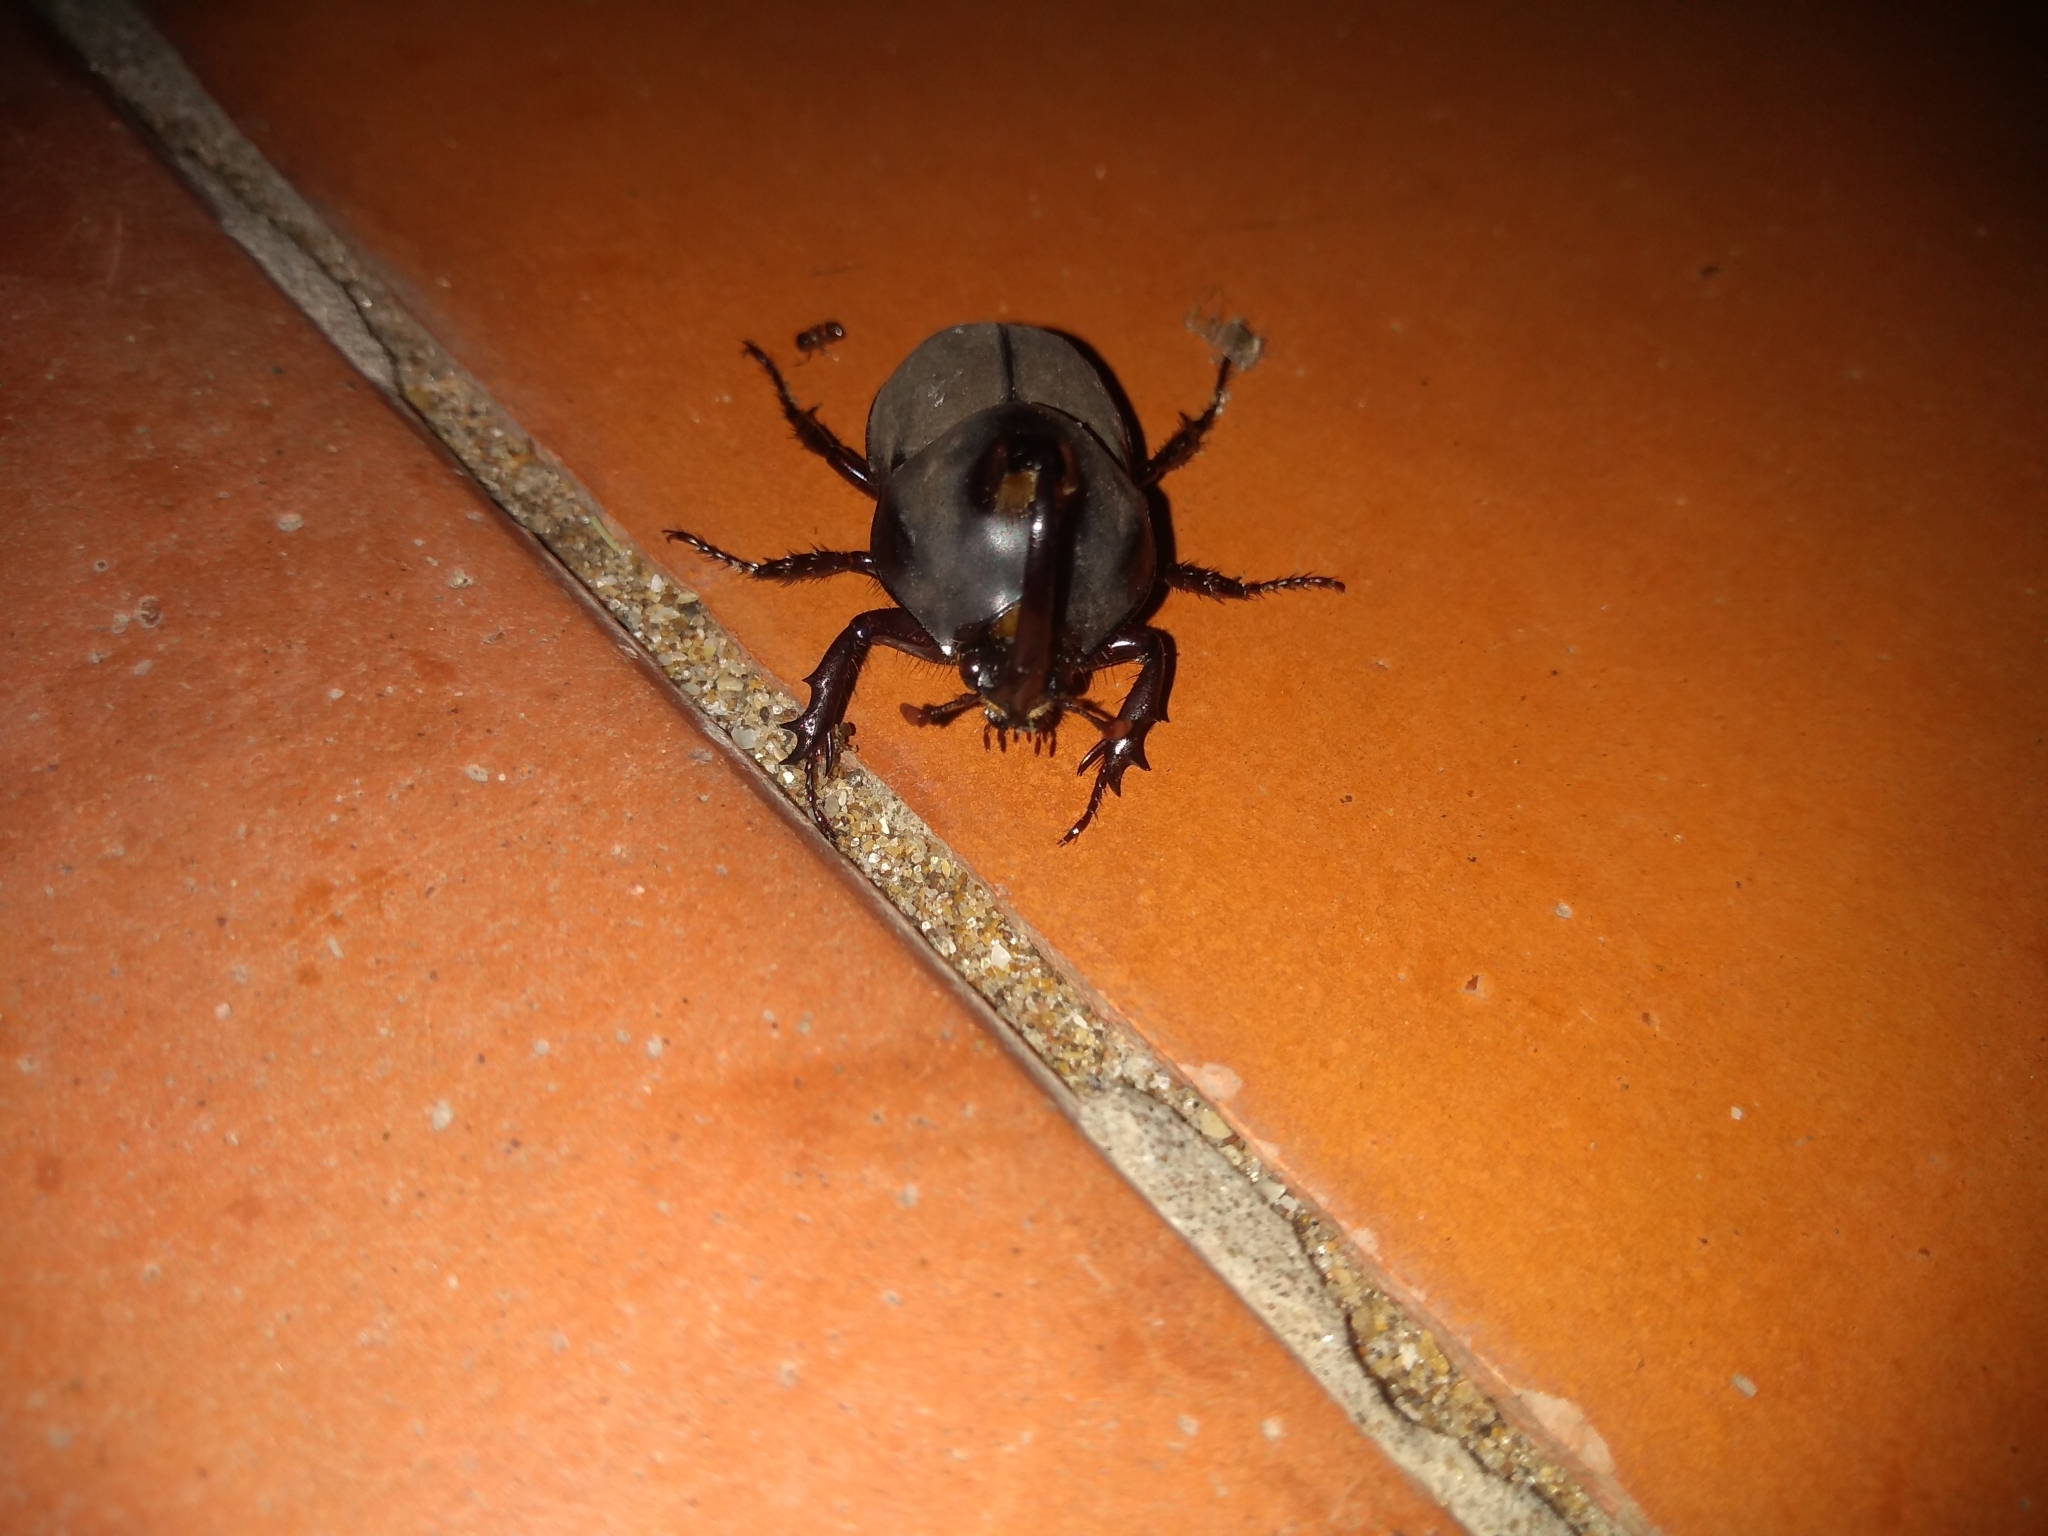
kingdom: Animalia
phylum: Arthropoda
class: Insecta
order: Coleoptera
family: Scarabaeidae
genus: Diloboderus
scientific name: Diloboderus abderus
